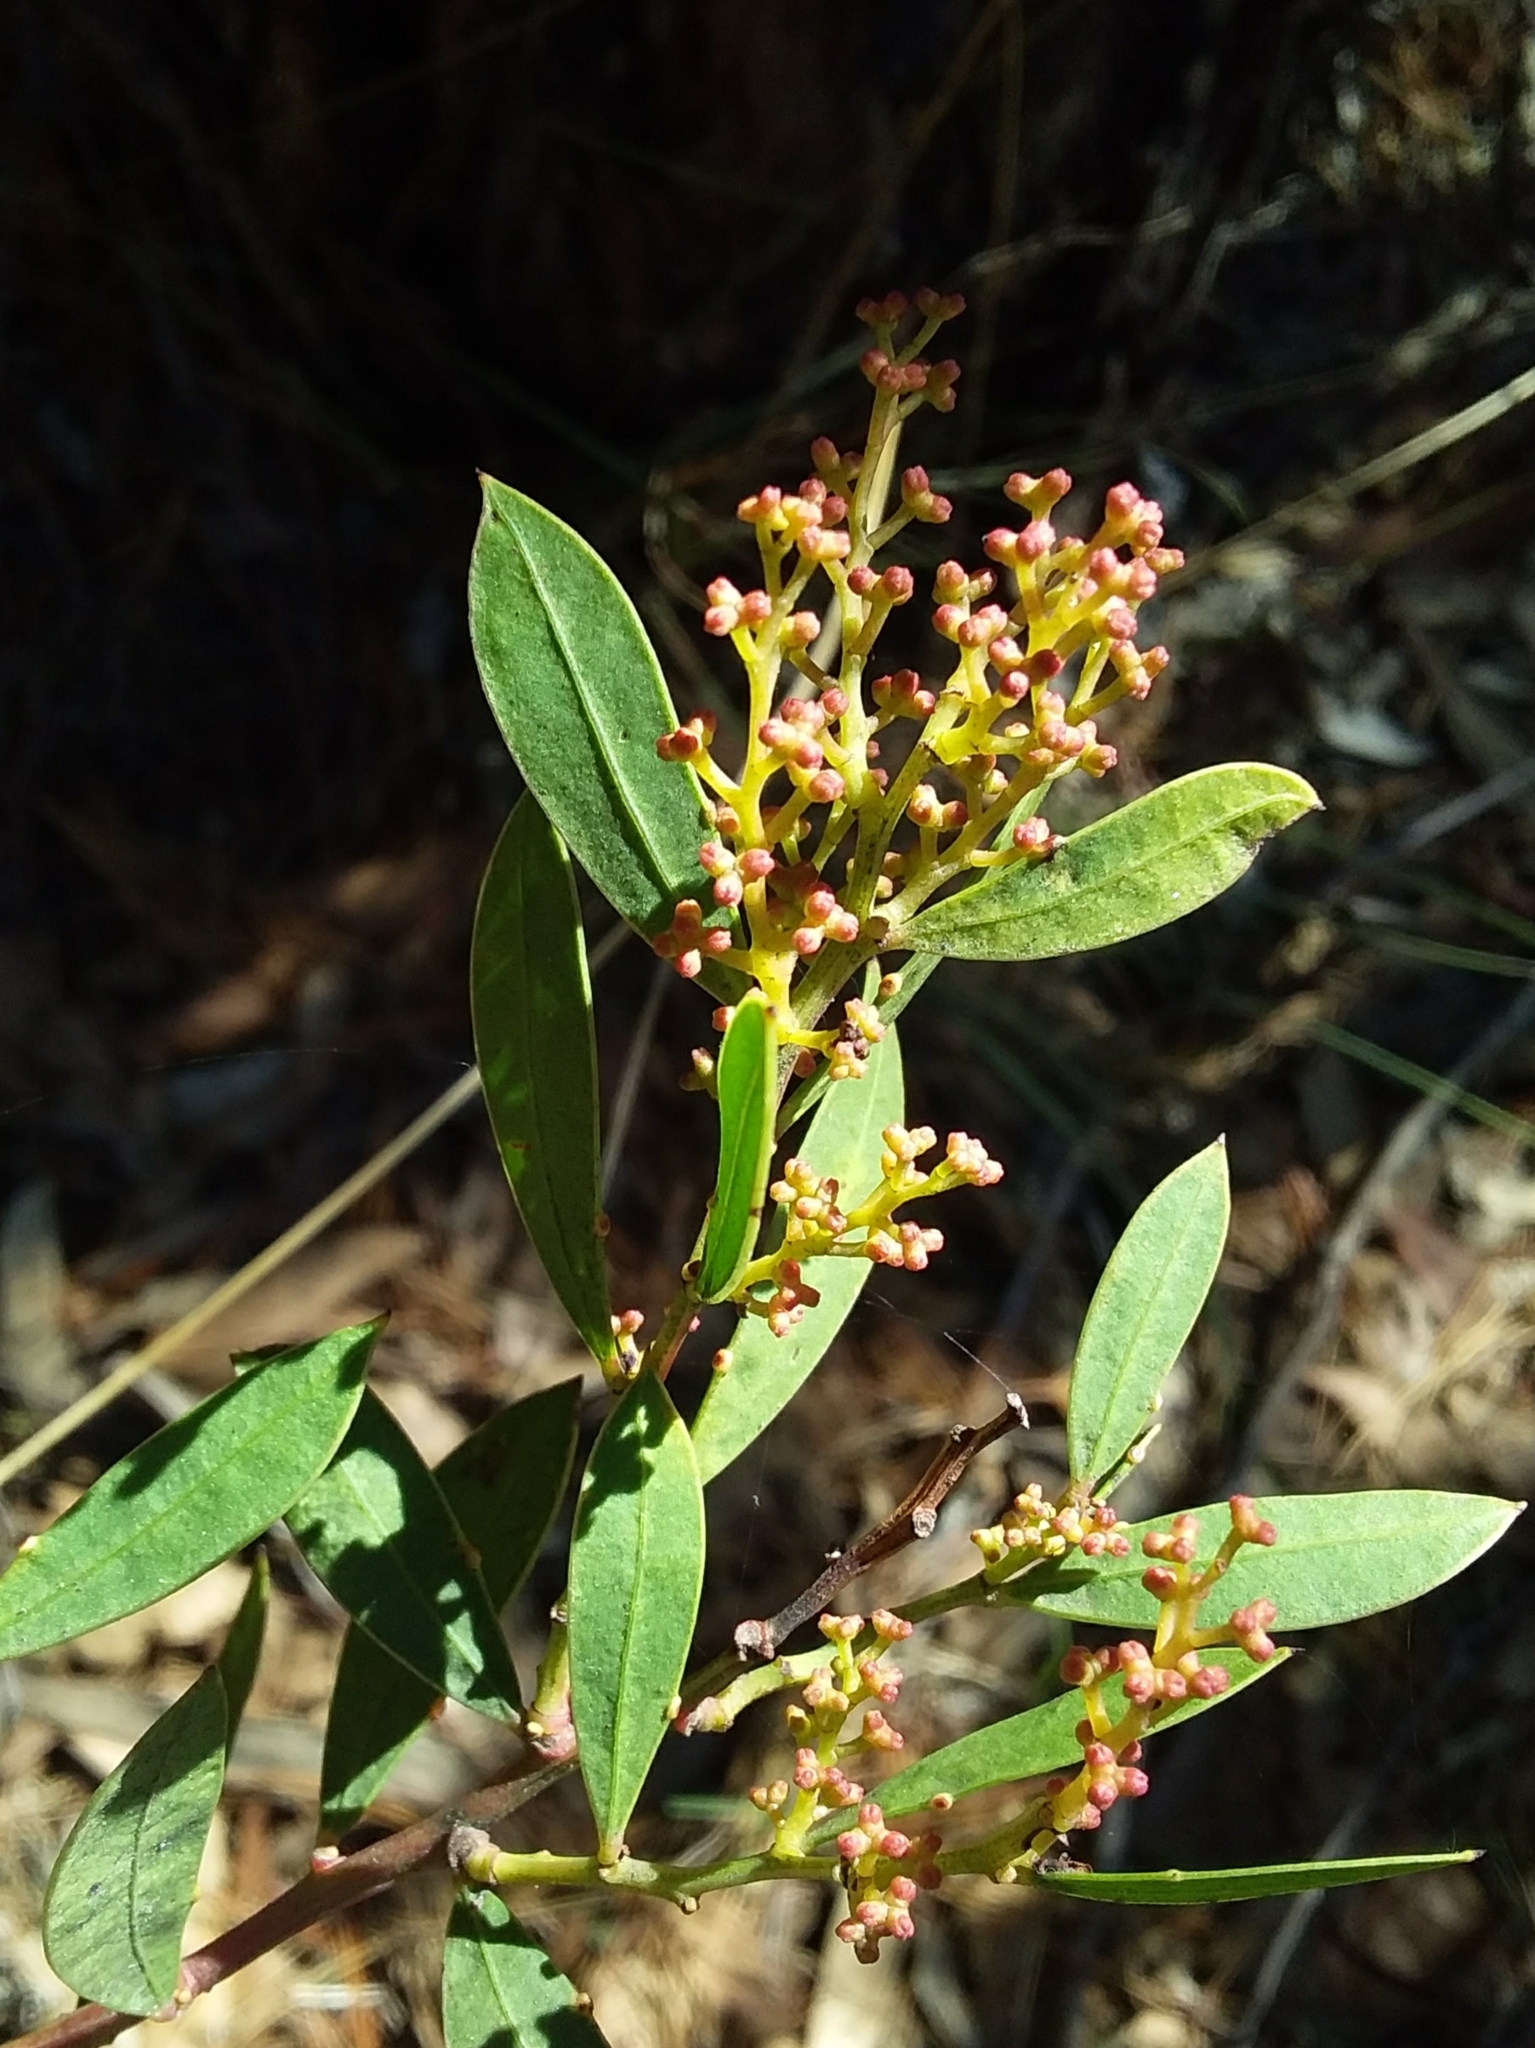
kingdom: Plantae
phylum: Tracheophyta
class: Magnoliopsida
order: Fabales
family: Fabaceae
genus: Acacia
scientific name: Acacia myrtifolia
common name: Myrtle wattle
